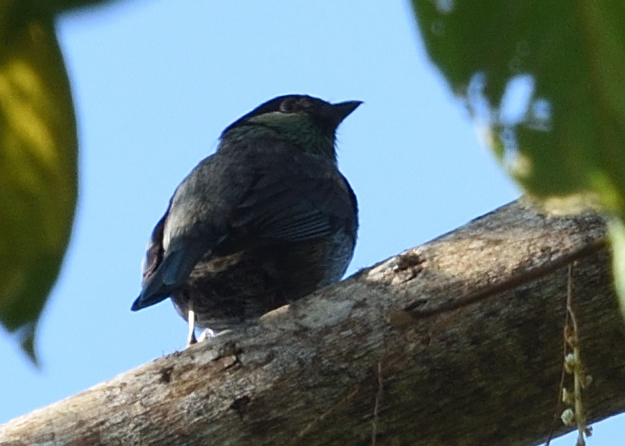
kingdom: Animalia
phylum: Chordata
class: Aves
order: Passeriformes
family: Thraupidae
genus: Stilpnia
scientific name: Stilpnia heinei
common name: Black-capped tanager
